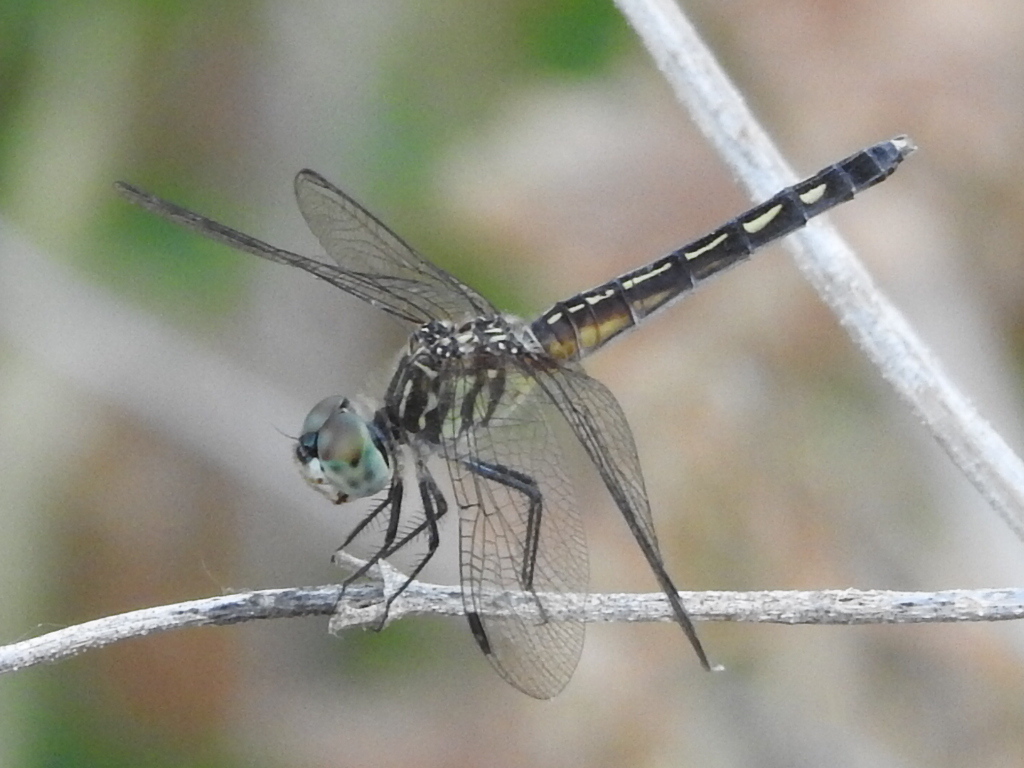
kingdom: Animalia
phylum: Arthropoda
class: Insecta
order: Odonata
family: Libellulidae
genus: Pachydiplax
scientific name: Pachydiplax longipennis
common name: Blue dasher
